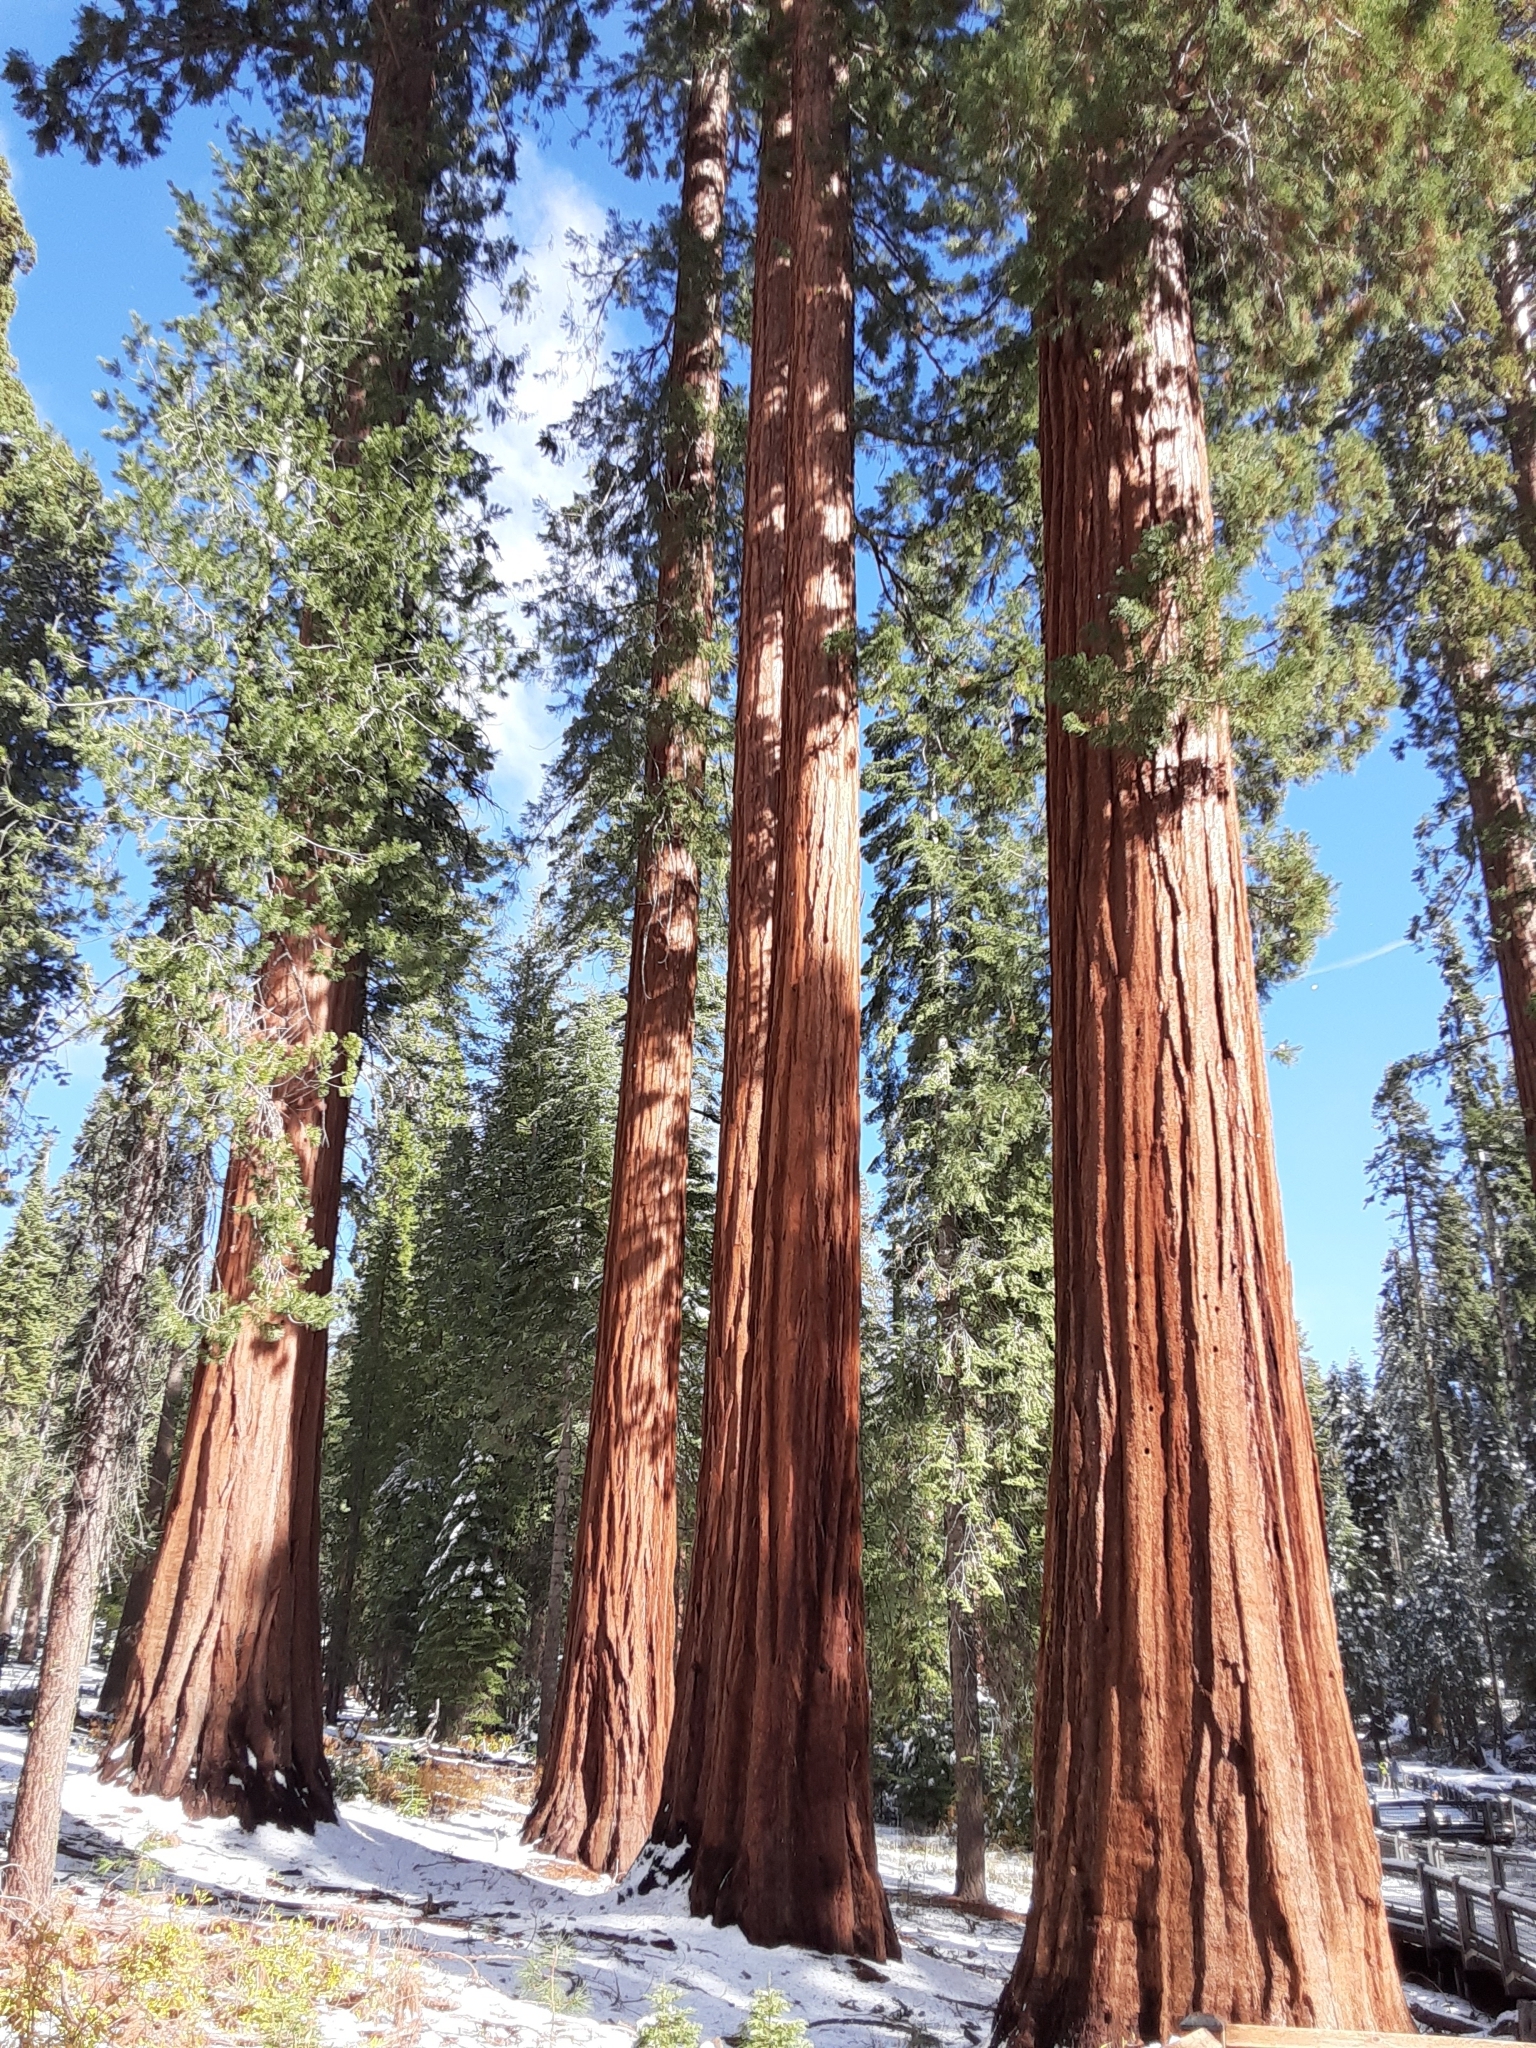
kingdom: Plantae
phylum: Tracheophyta
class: Pinopsida
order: Pinales
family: Cupressaceae
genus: Sequoiadendron
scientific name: Sequoiadendron giganteum
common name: Wellingtonia
